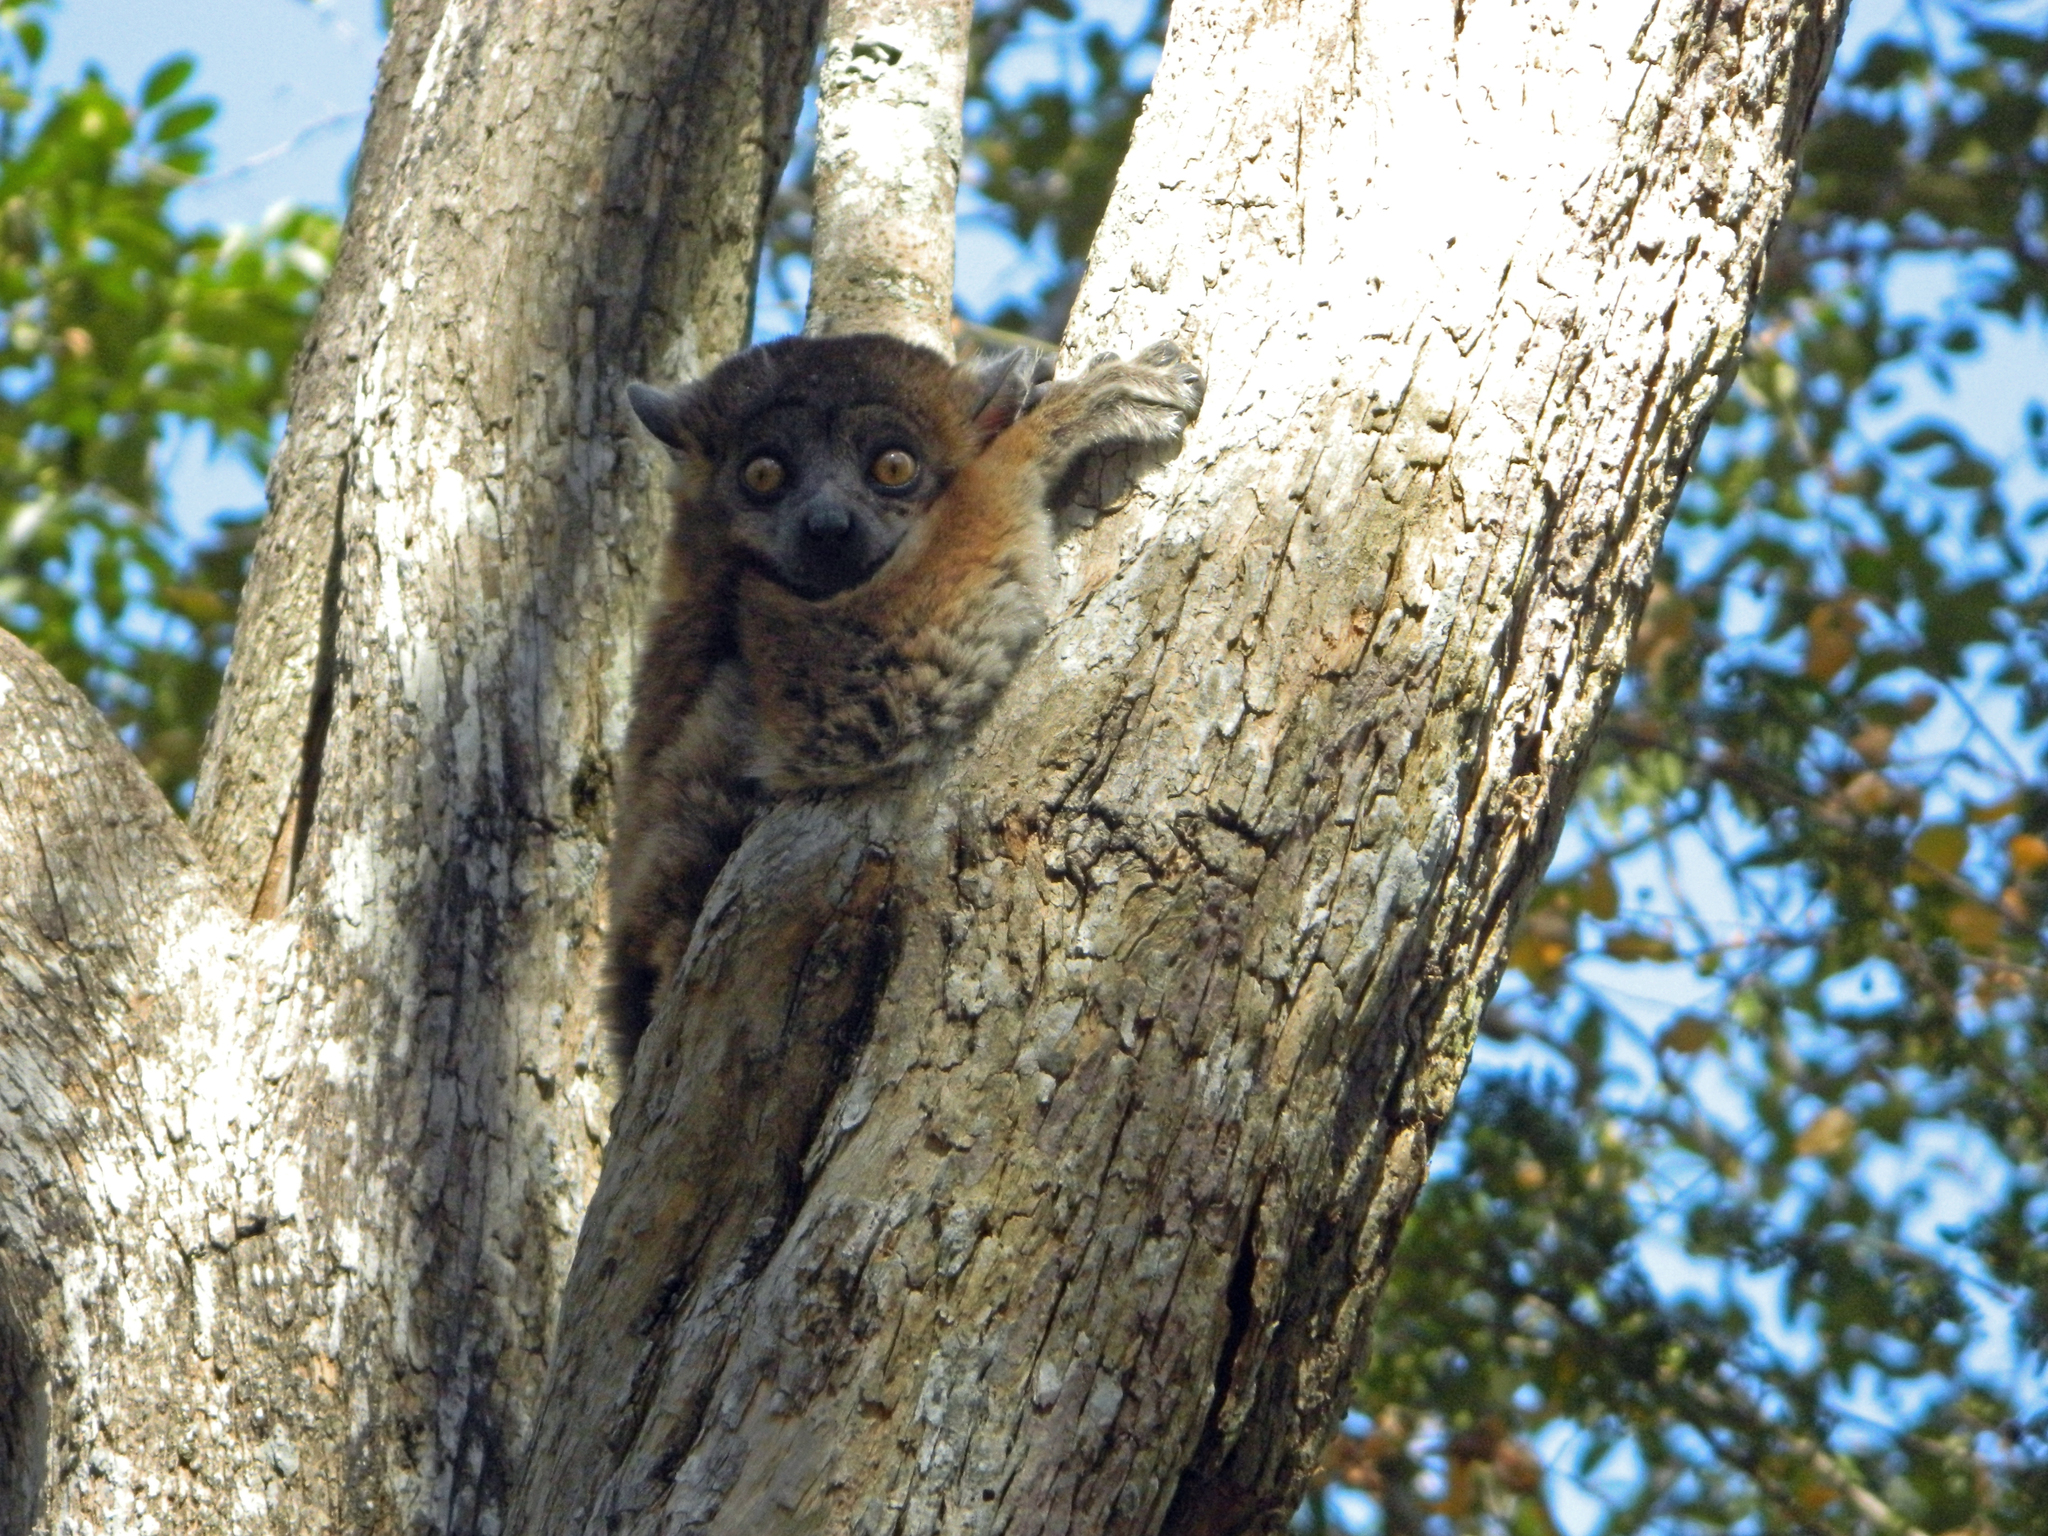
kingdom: Animalia
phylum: Chordata
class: Mammalia
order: Primates
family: Lepilemuridae
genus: Lepilemur
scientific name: Lepilemur hubbardi
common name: Zombitse sportive lemur
